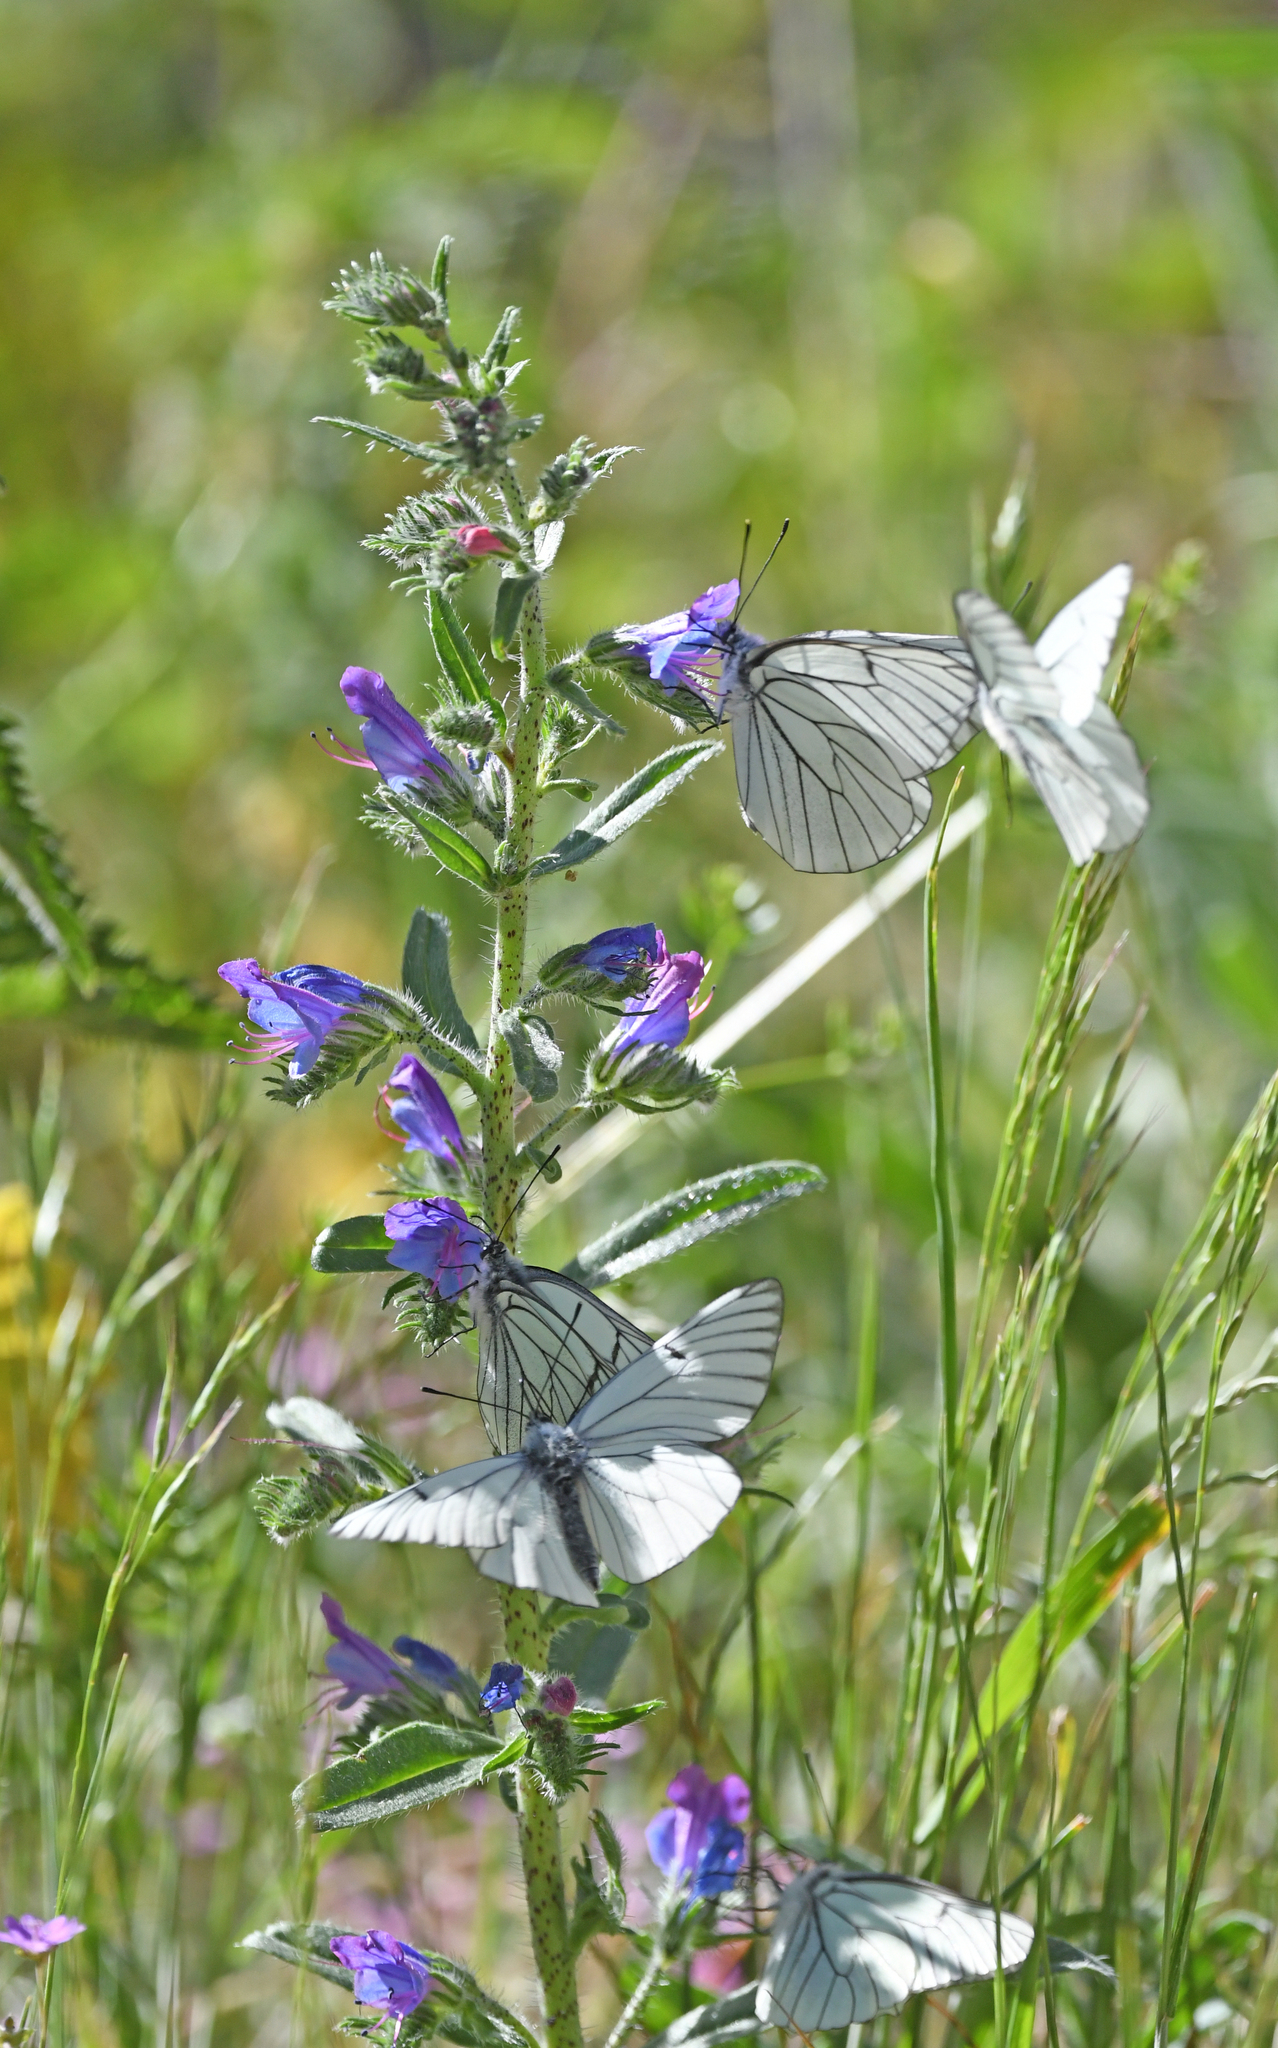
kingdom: Animalia
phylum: Arthropoda
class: Insecta
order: Lepidoptera
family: Pieridae
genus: Aporia
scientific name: Aporia crataegi
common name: Black-veined white
